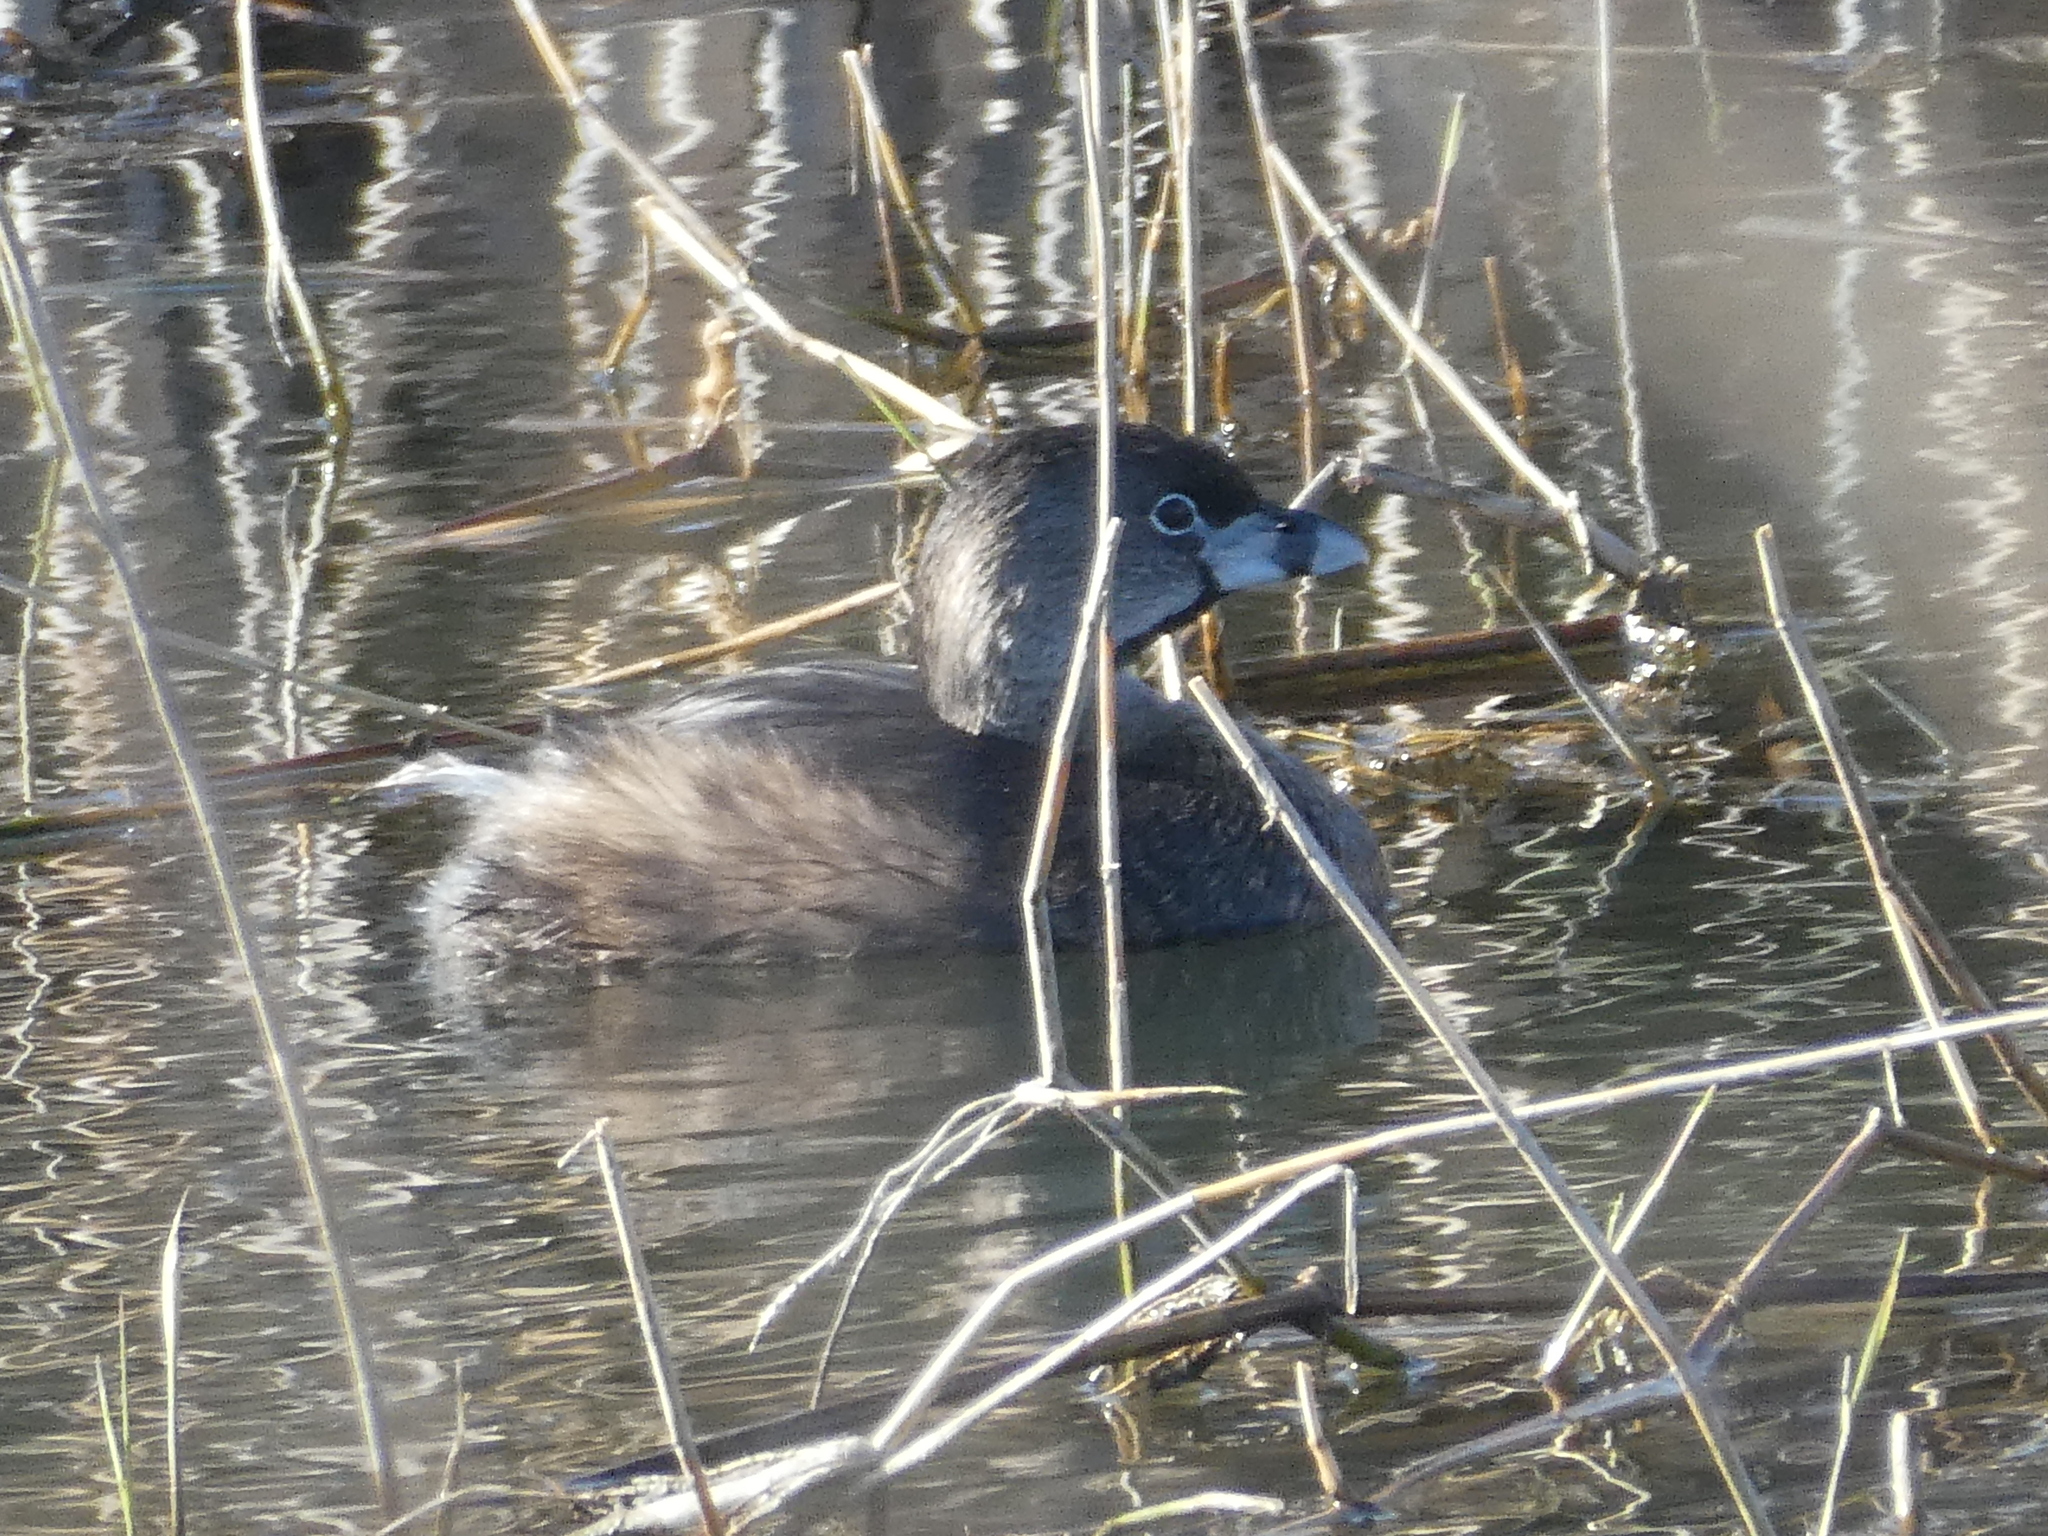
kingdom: Animalia
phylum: Chordata
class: Aves
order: Podicipediformes
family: Podicipedidae
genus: Podilymbus
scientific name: Podilymbus podiceps
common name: Pied-billed grebe
